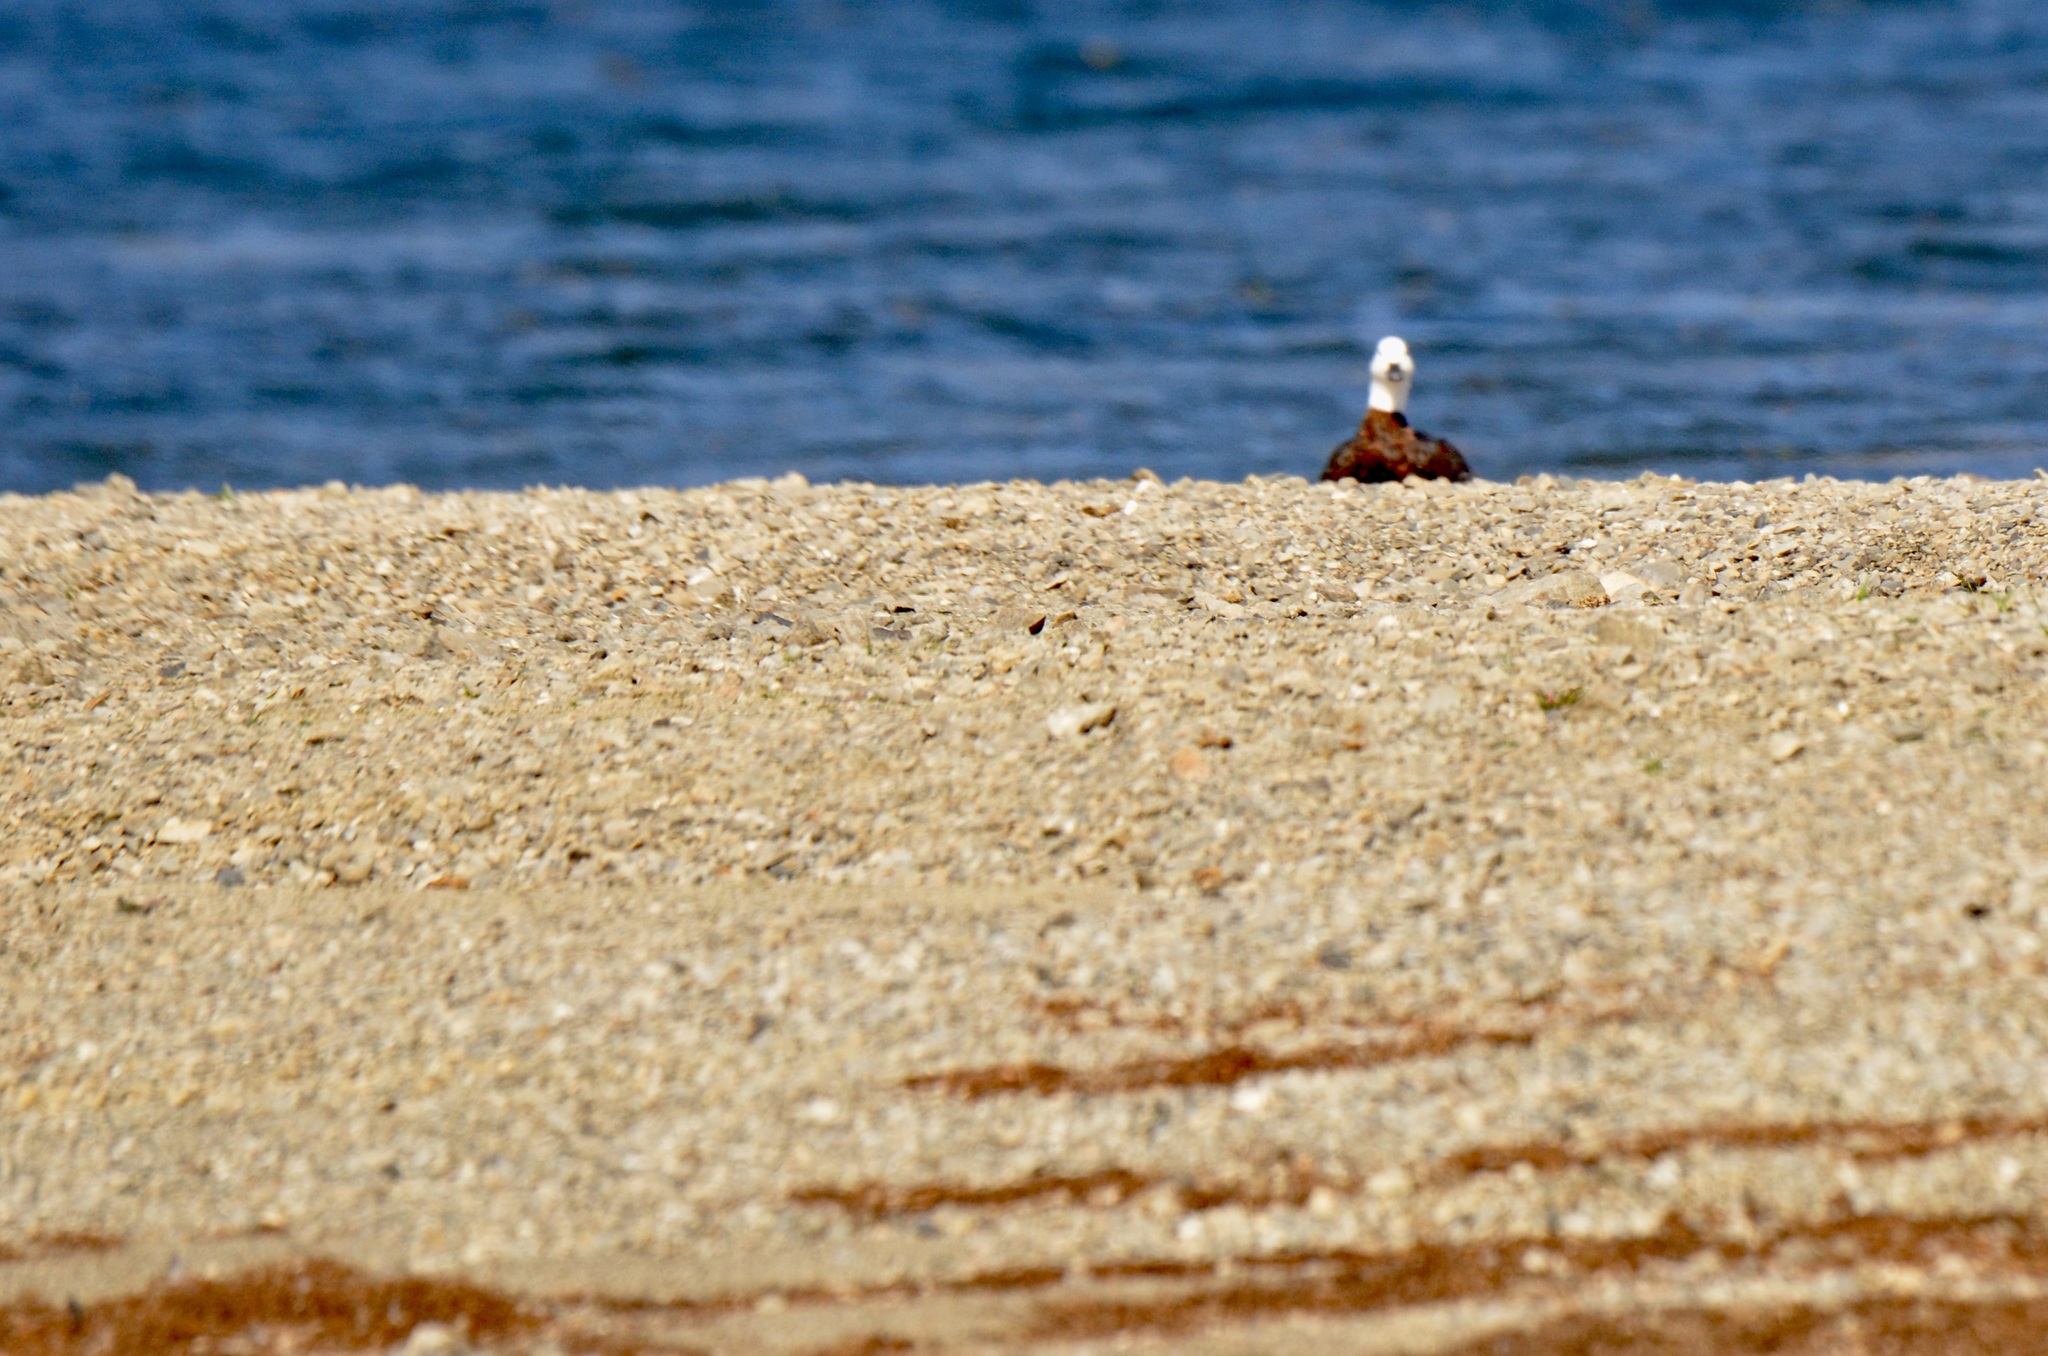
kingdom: Animalia
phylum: Chordata
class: Aves
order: Anseriformes
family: Anatidae
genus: Tadorna
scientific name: Tadorna variegata
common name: Paradise shelduck
